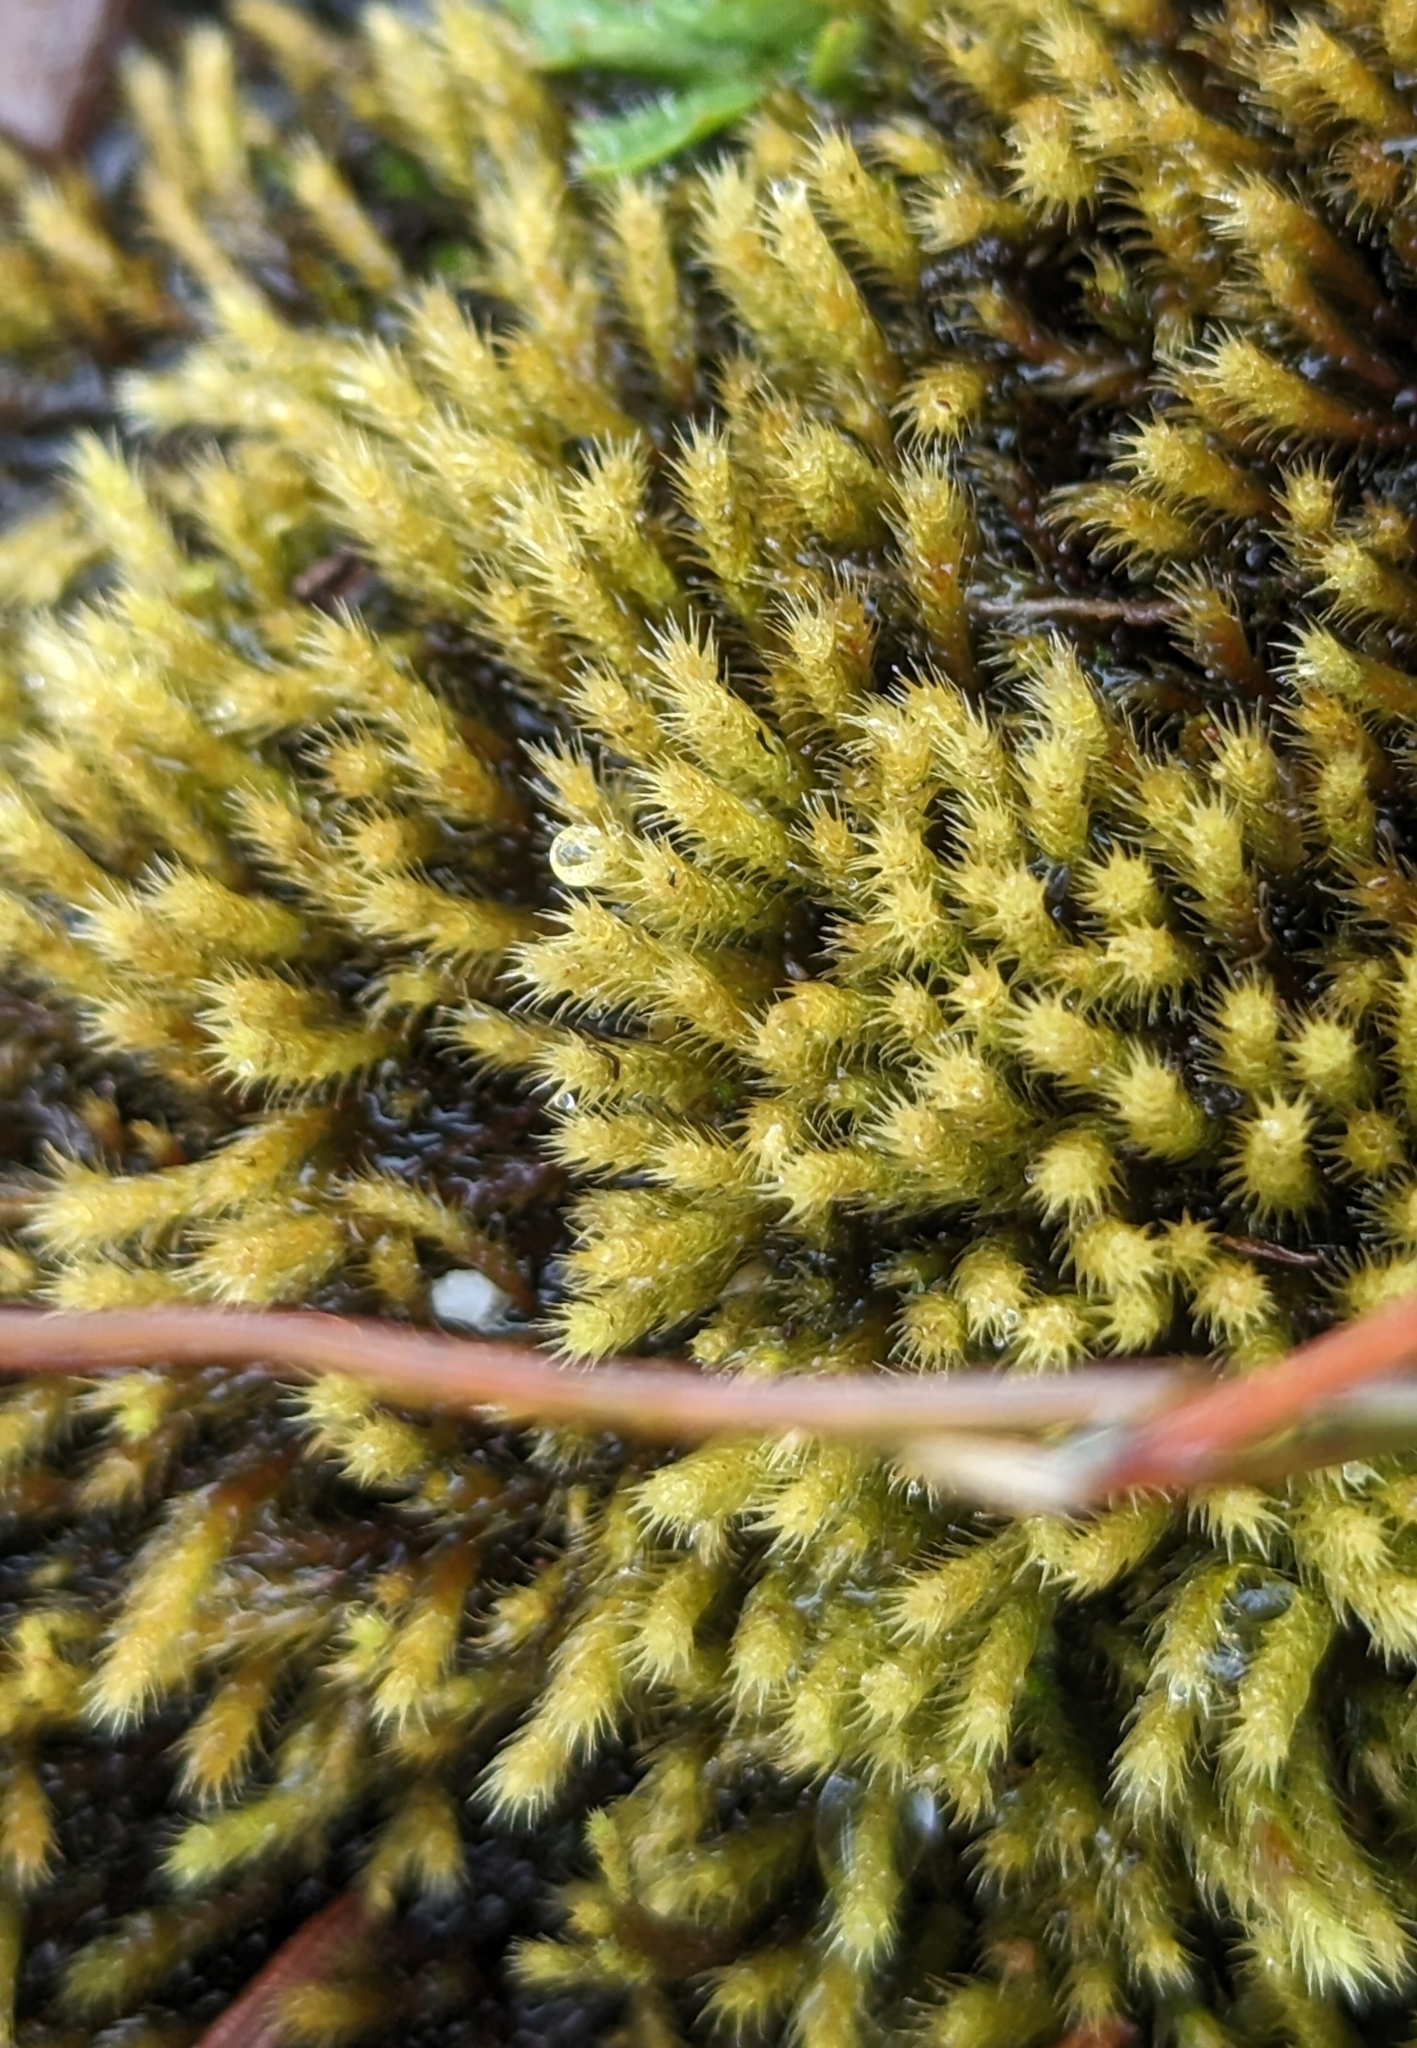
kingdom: Plantae
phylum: Bryophyta
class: Bryopsida
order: Bartramiales
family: Bartramiaceae
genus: Philonotis
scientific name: Philonotis fontana
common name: Fountain apple-moss
